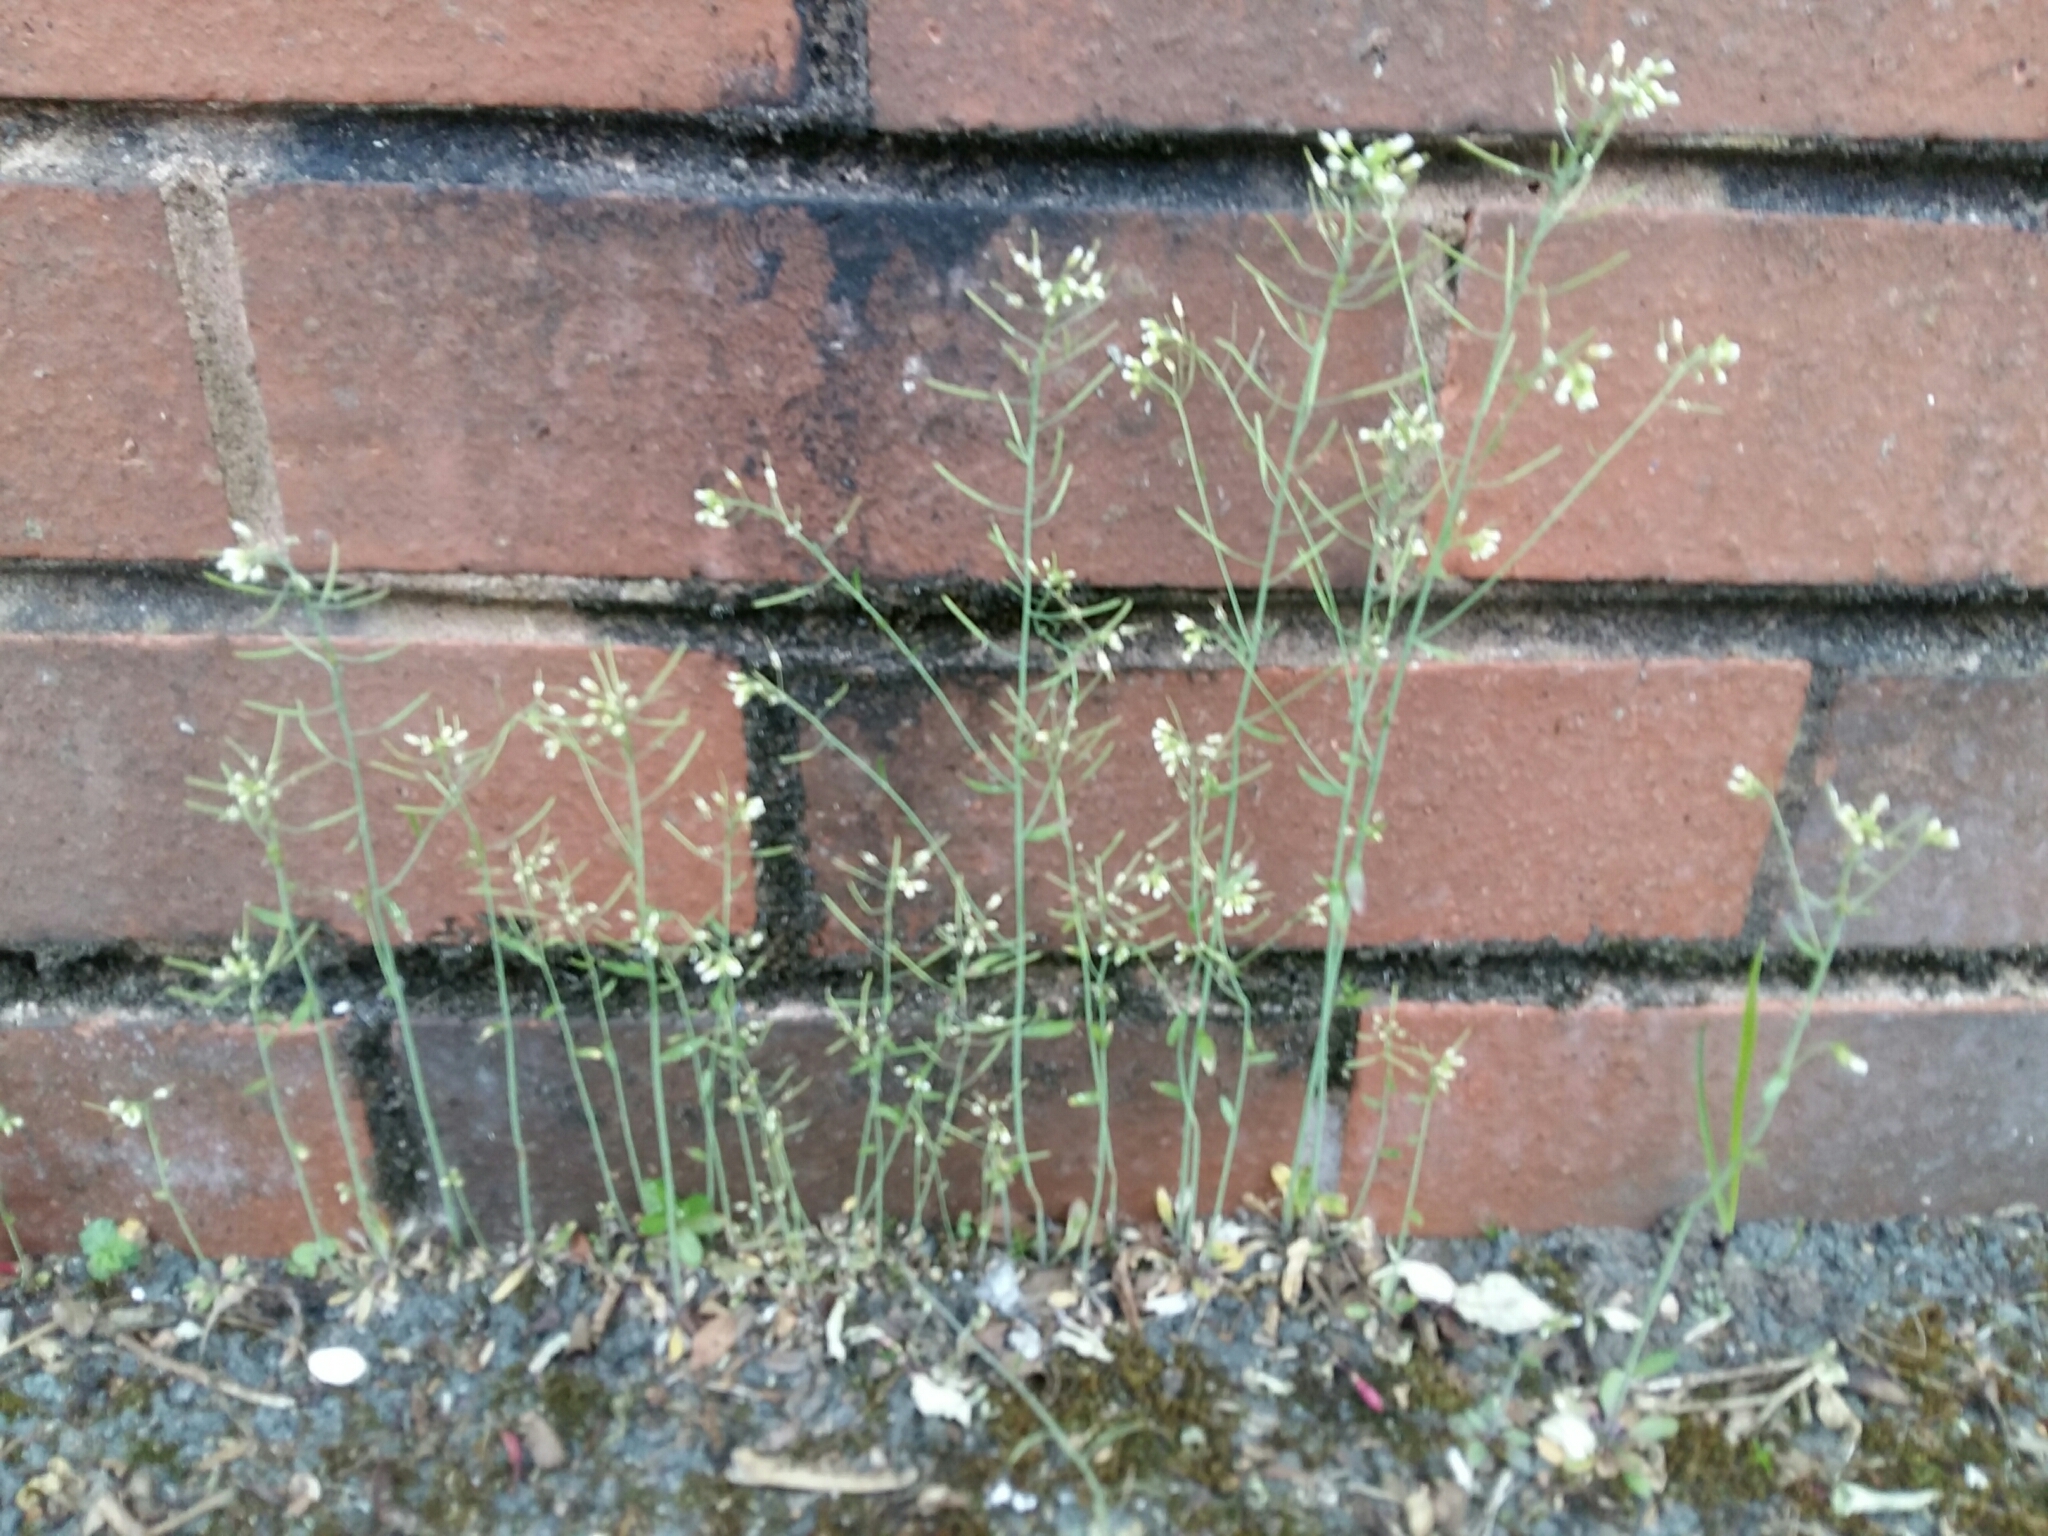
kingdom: Plantae
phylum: Tracheophyta
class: Magnoliopsida
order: Brassicales
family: Brassicaceae
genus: Arabidopsis
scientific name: Arabidopsis thaliana
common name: Thale cress
